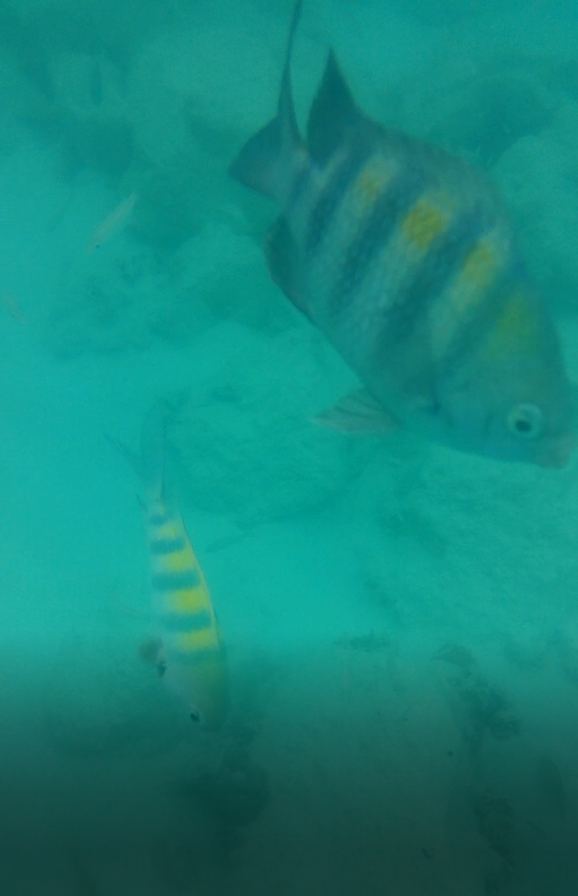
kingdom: Animalia
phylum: Chordata
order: Perciformes
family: Pomacentridae
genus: Abudefduf
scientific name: Abudefduf saxatilis
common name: Sergeant major
